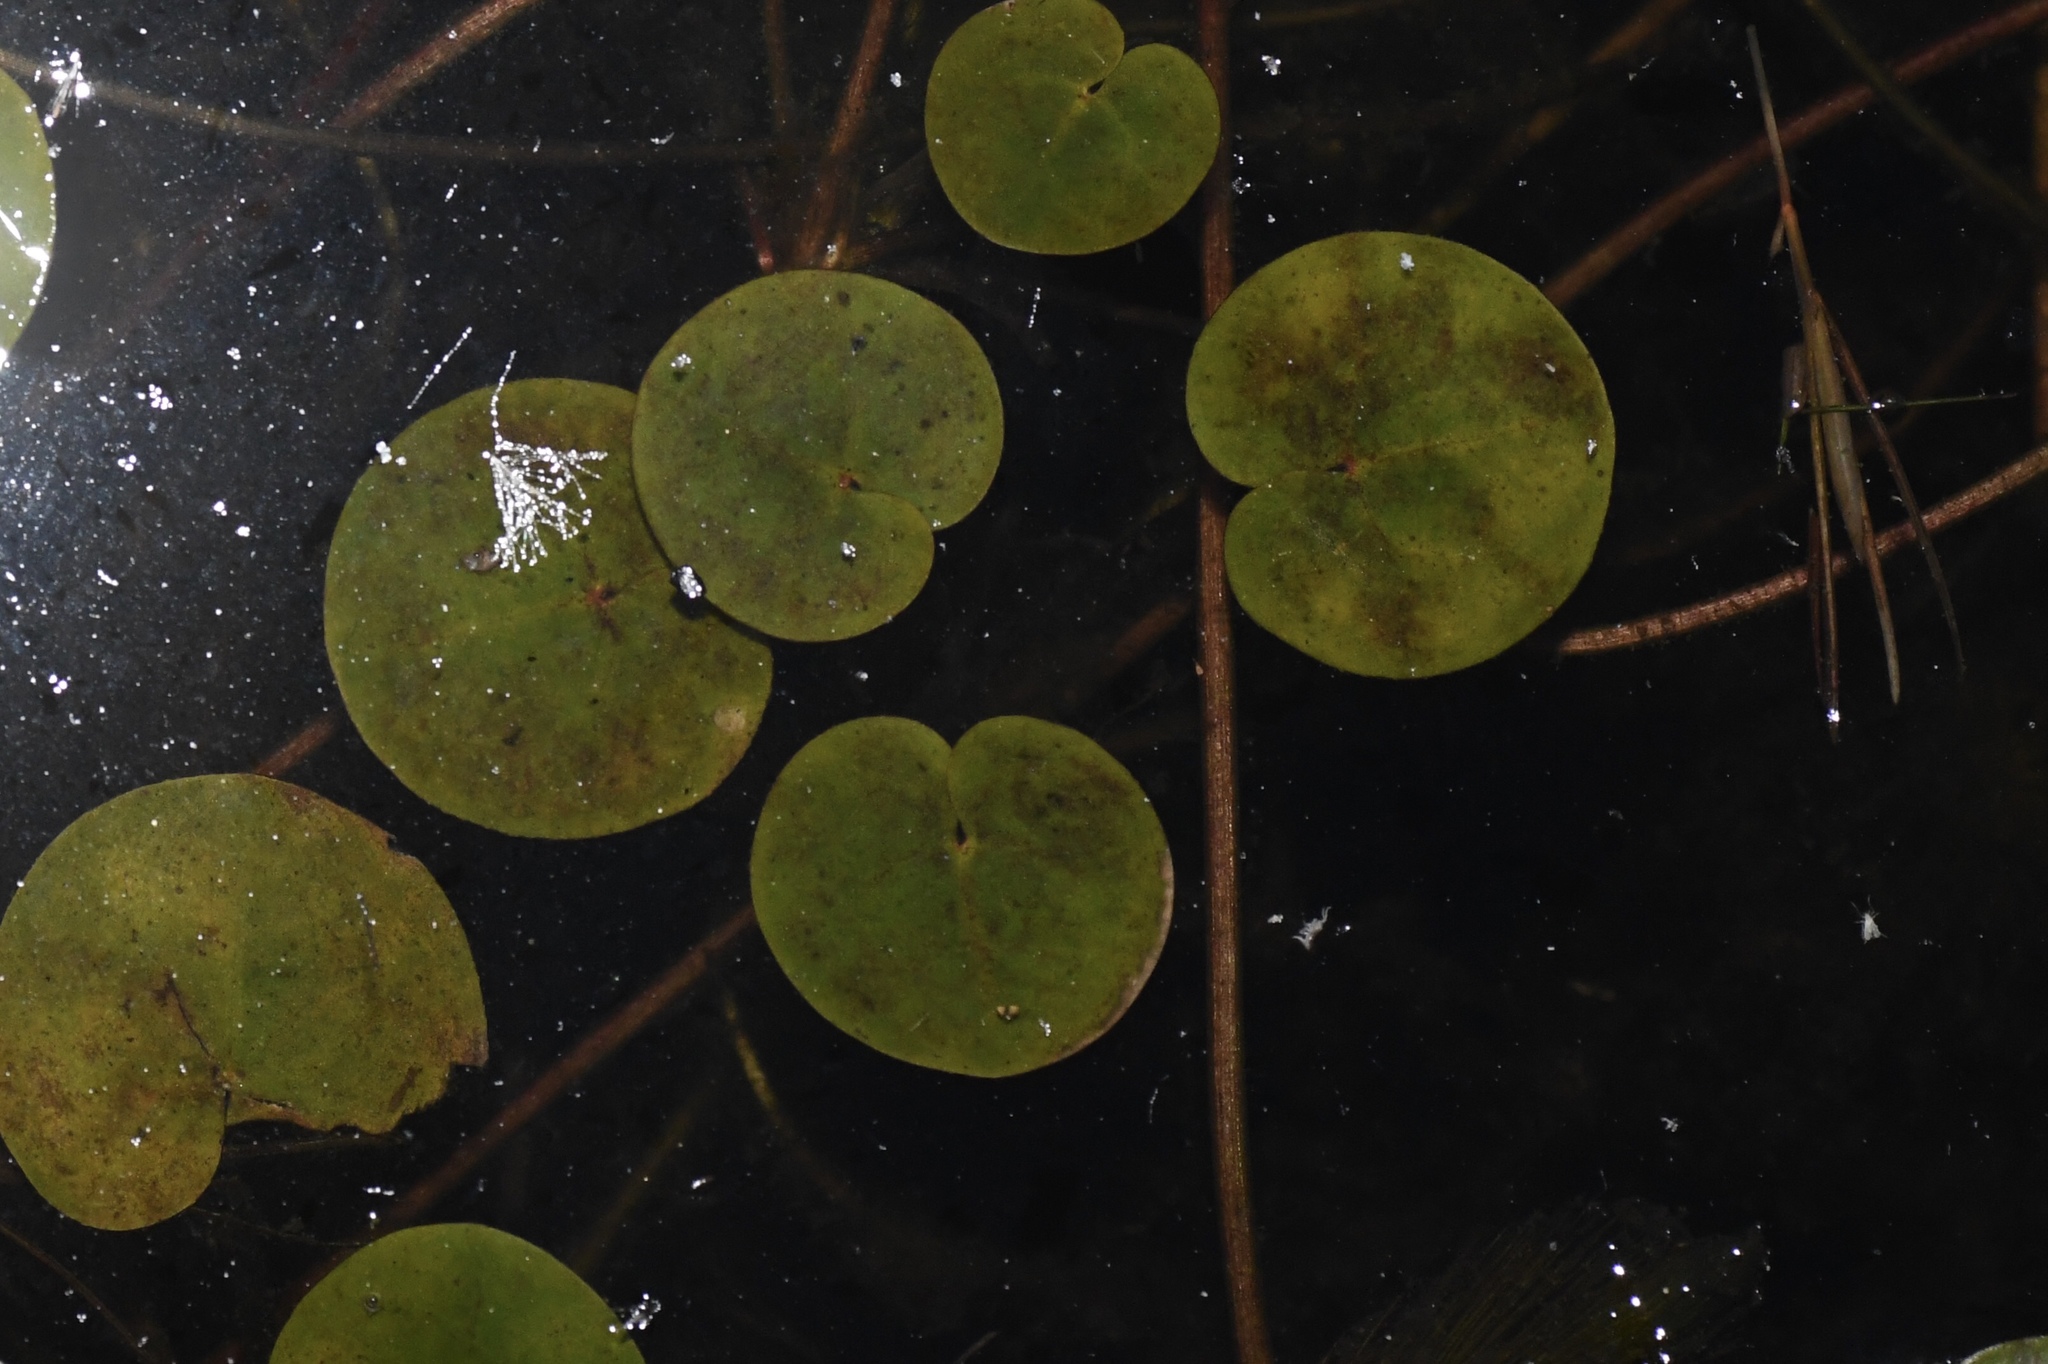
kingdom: Plantae
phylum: Tracheophyta
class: Liliopsida
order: Alismatales
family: Hydrocharitaceae
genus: Hydrocharis
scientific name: Hydrocharis morsus-ranae
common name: Frogbit
